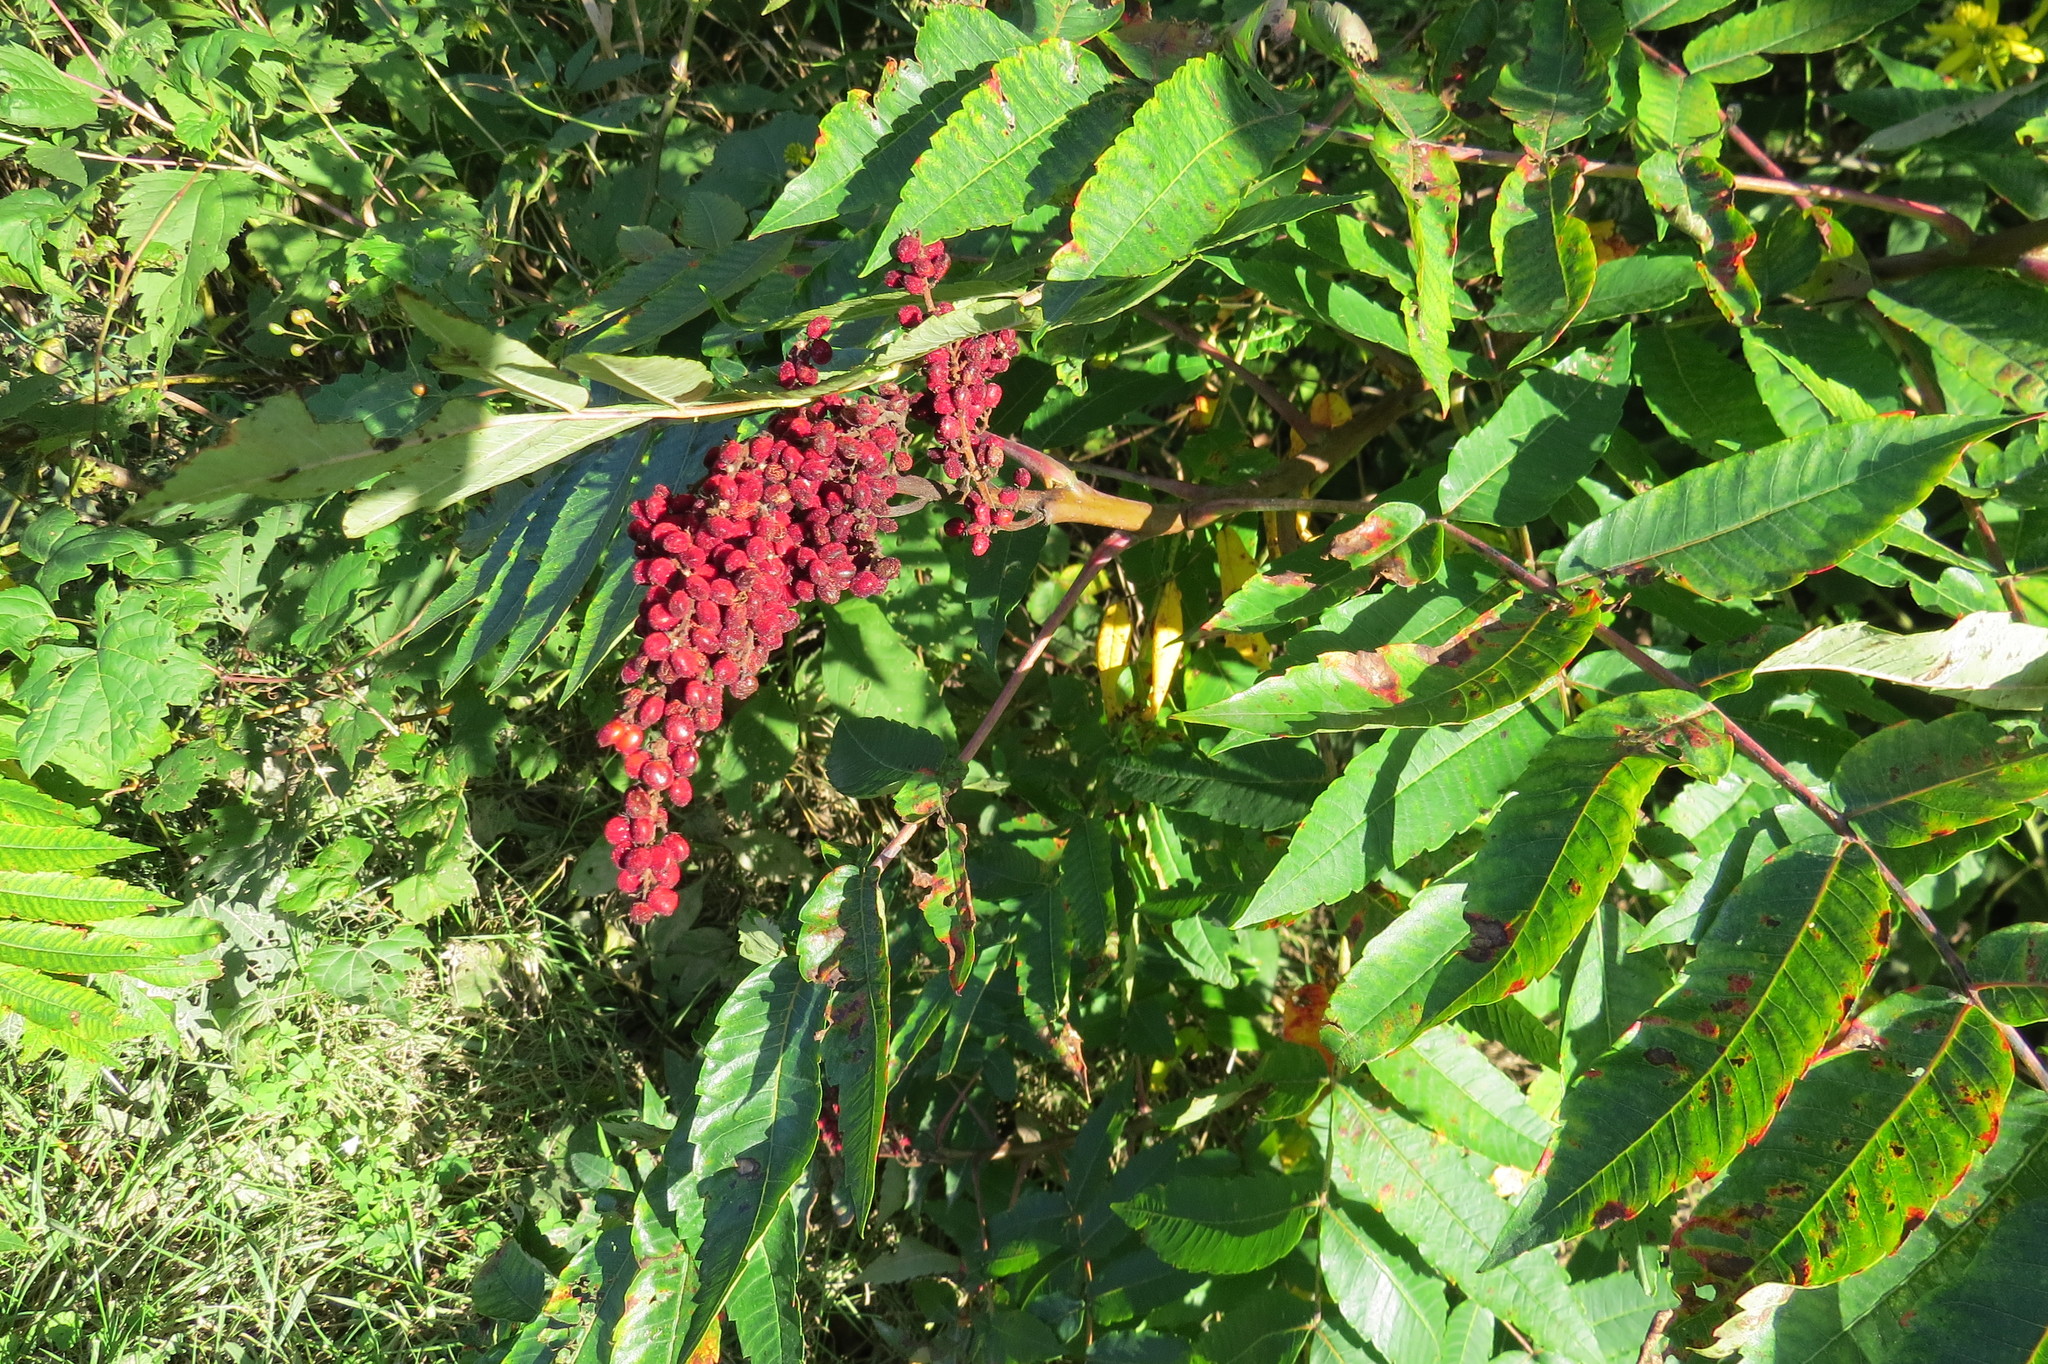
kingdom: Plantae
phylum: Tracheophyta
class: Magnoliopsida
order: Sapindales
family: Anacardiaceae
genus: Rhus
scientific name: Rhus glabra
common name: Scarlet sumac
